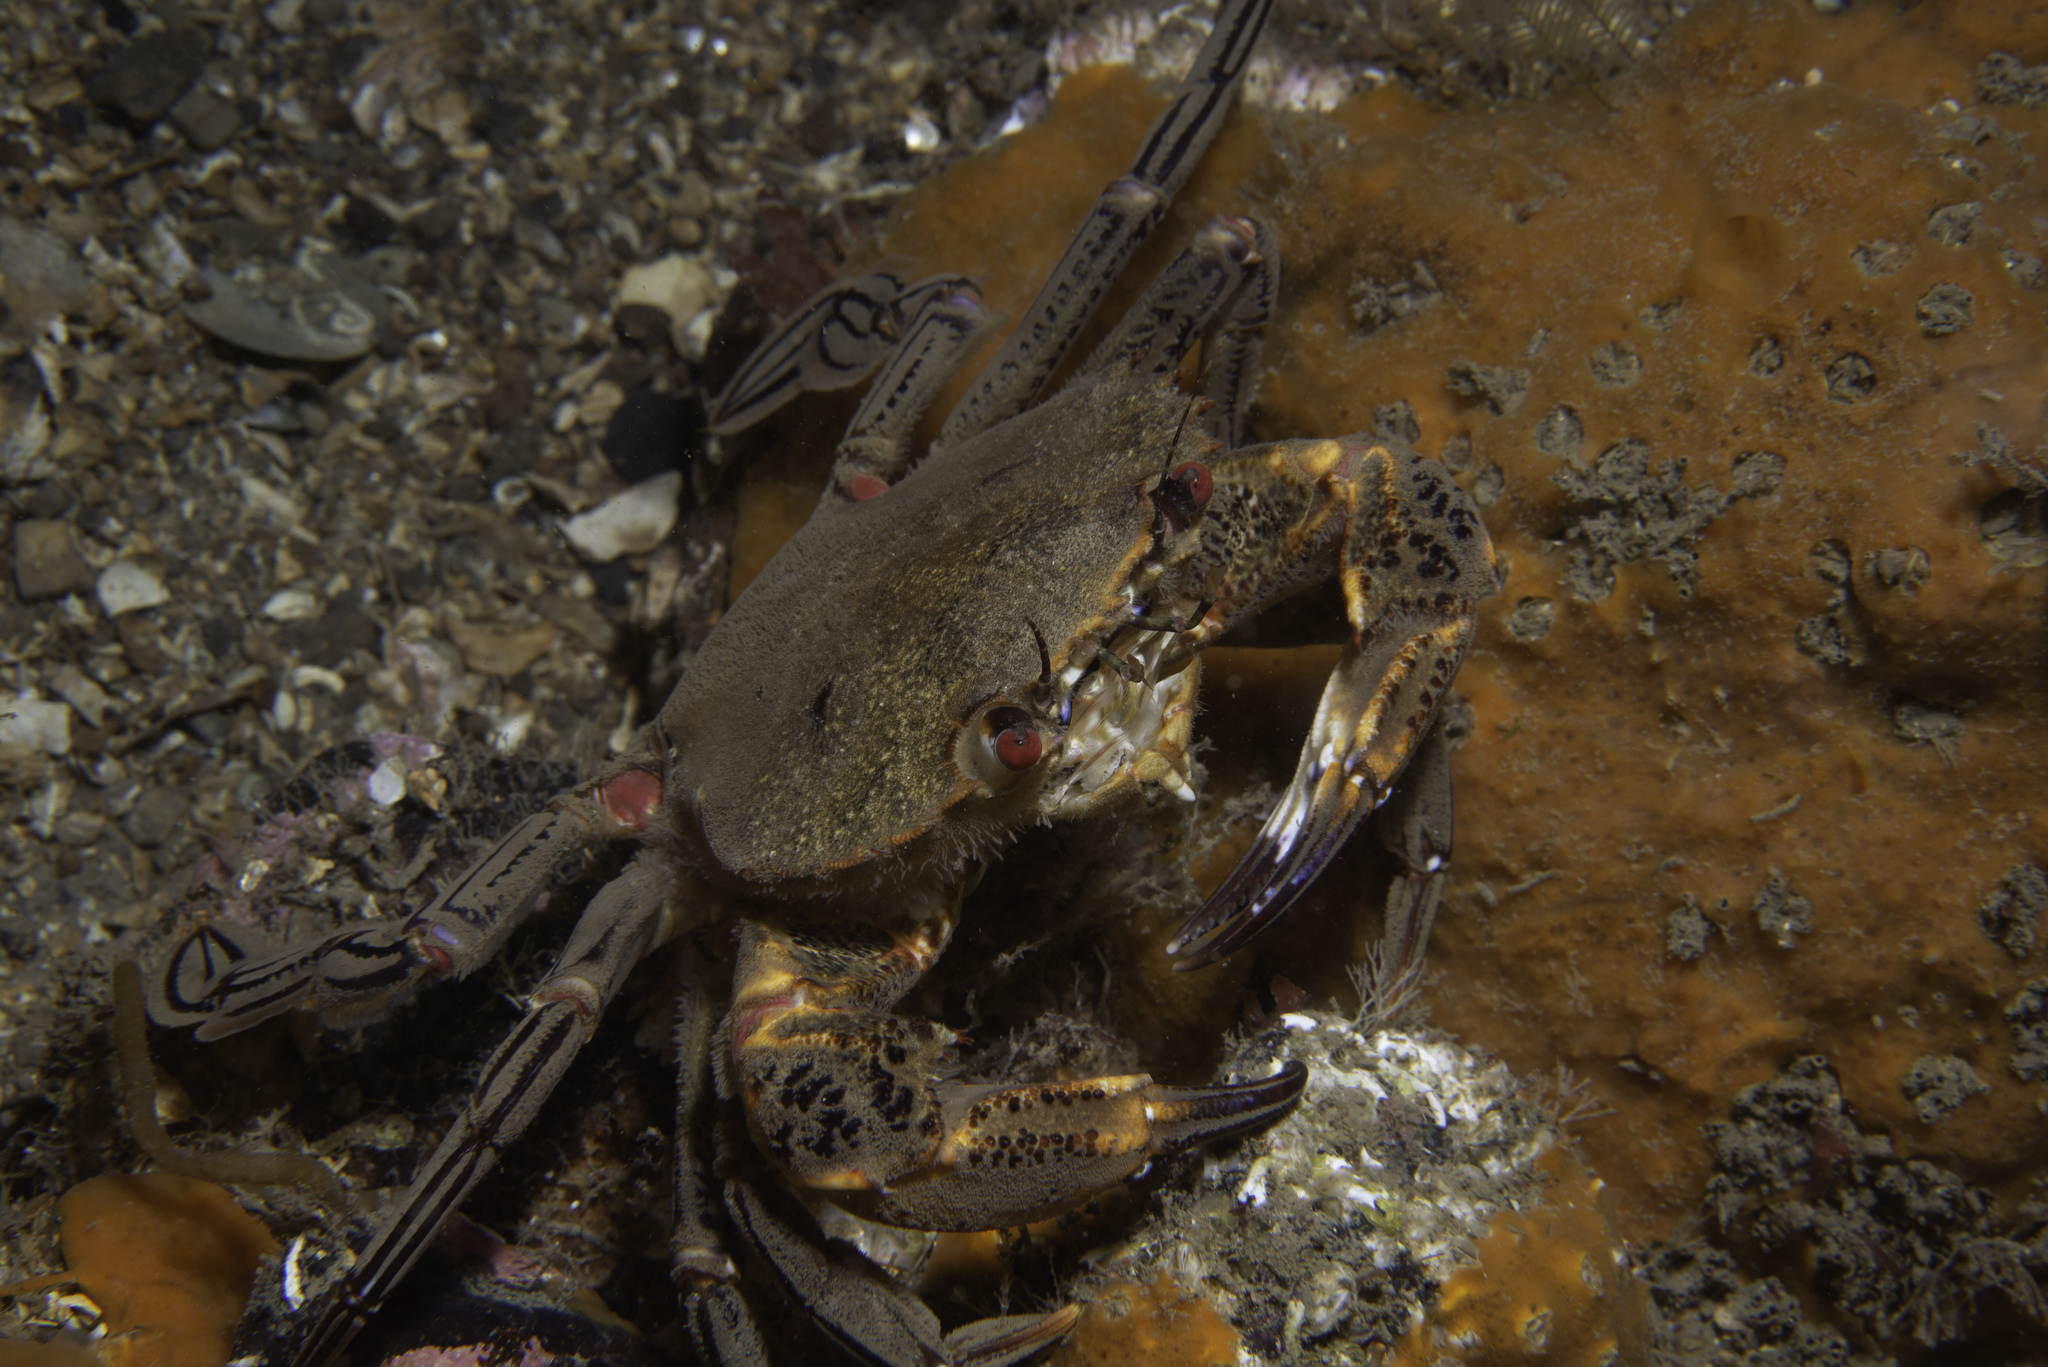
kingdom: Animalia
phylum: Arthropoda
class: Malacostraca
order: Decapoda
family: Polybiidae
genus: Necora
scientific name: Necora puber
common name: Velvet swimming crab
